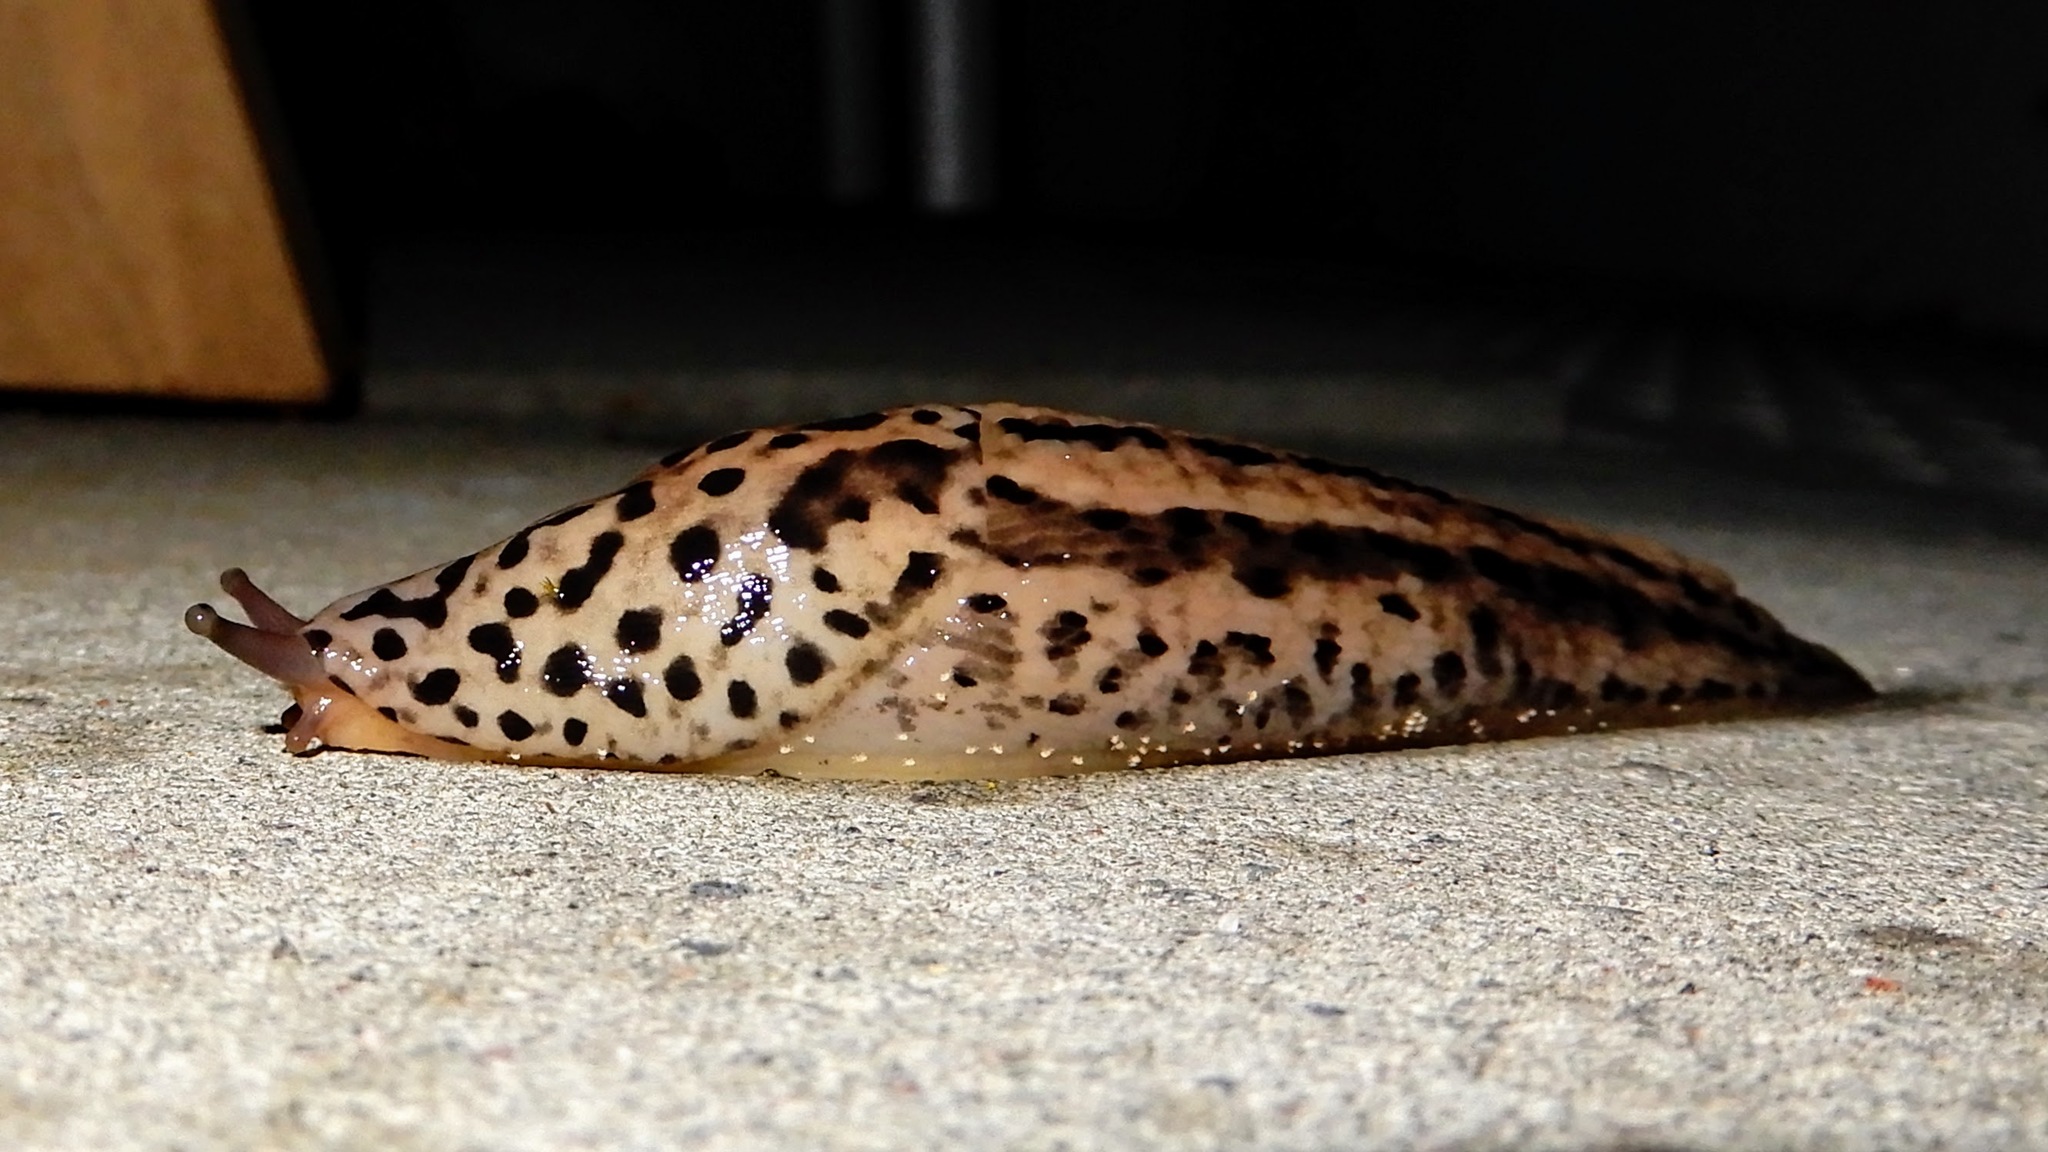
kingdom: Animalia
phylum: Mollusca
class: Gastropoda
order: Stylommatophora
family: Limacidae
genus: Limax
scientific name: Limax maximus
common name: Great grey slug
